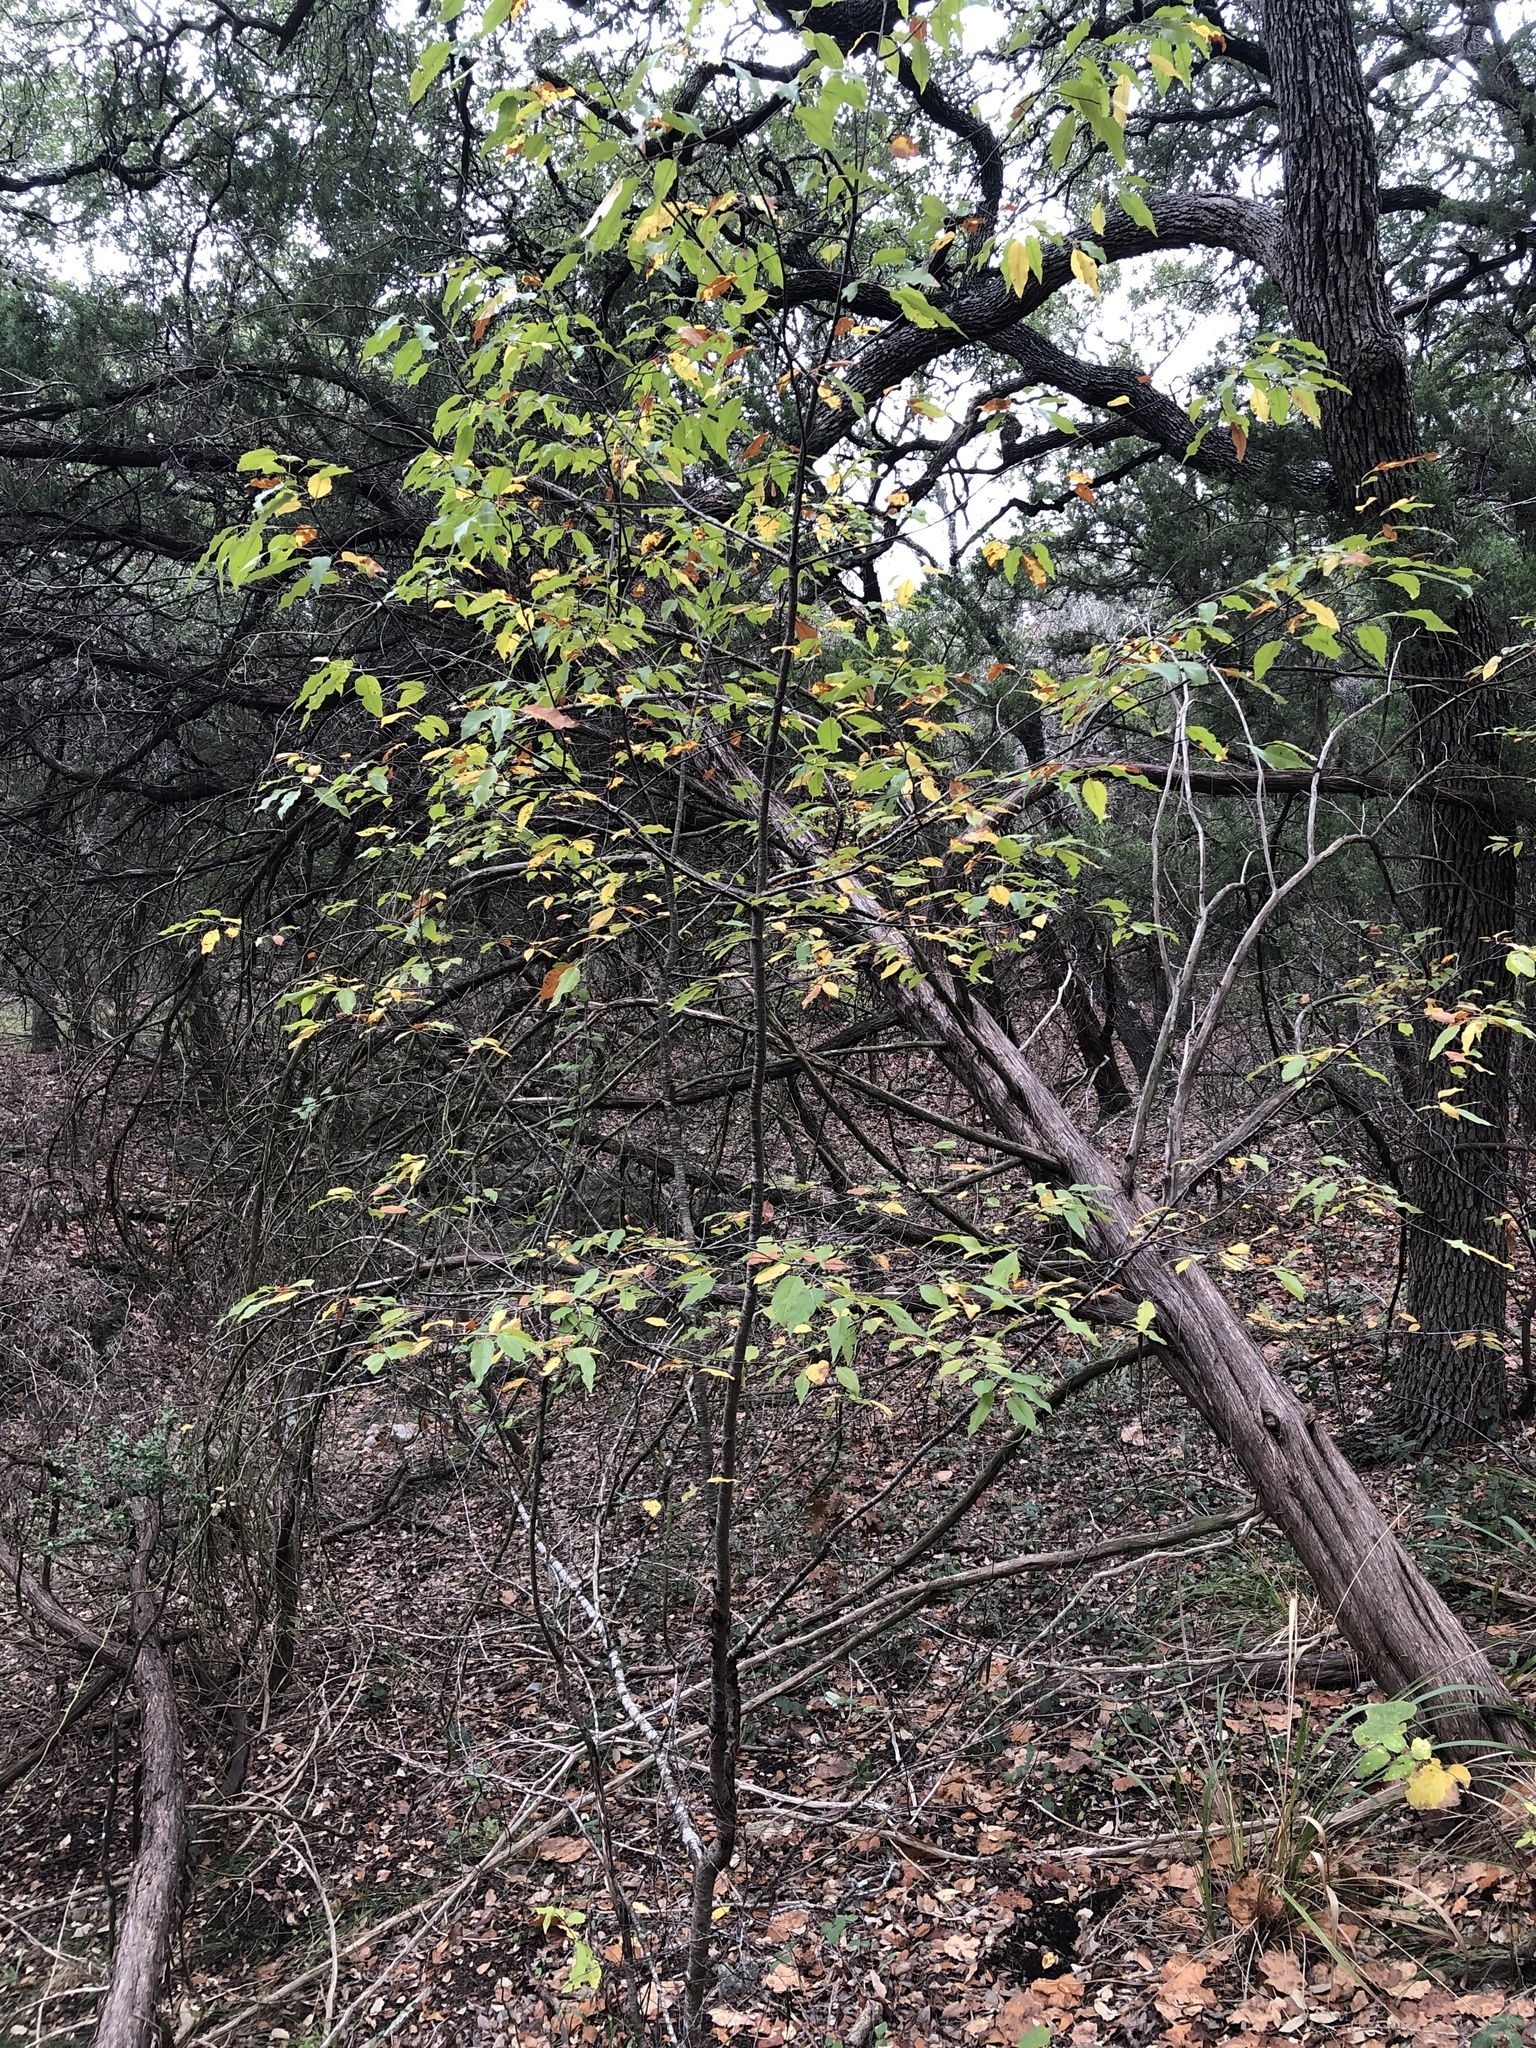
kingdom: Plantae
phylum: Tracheophyta
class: Magnoliopsida
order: Rosales
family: Rosaceae
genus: Prunus
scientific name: Prunus serotina
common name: Black cherry
